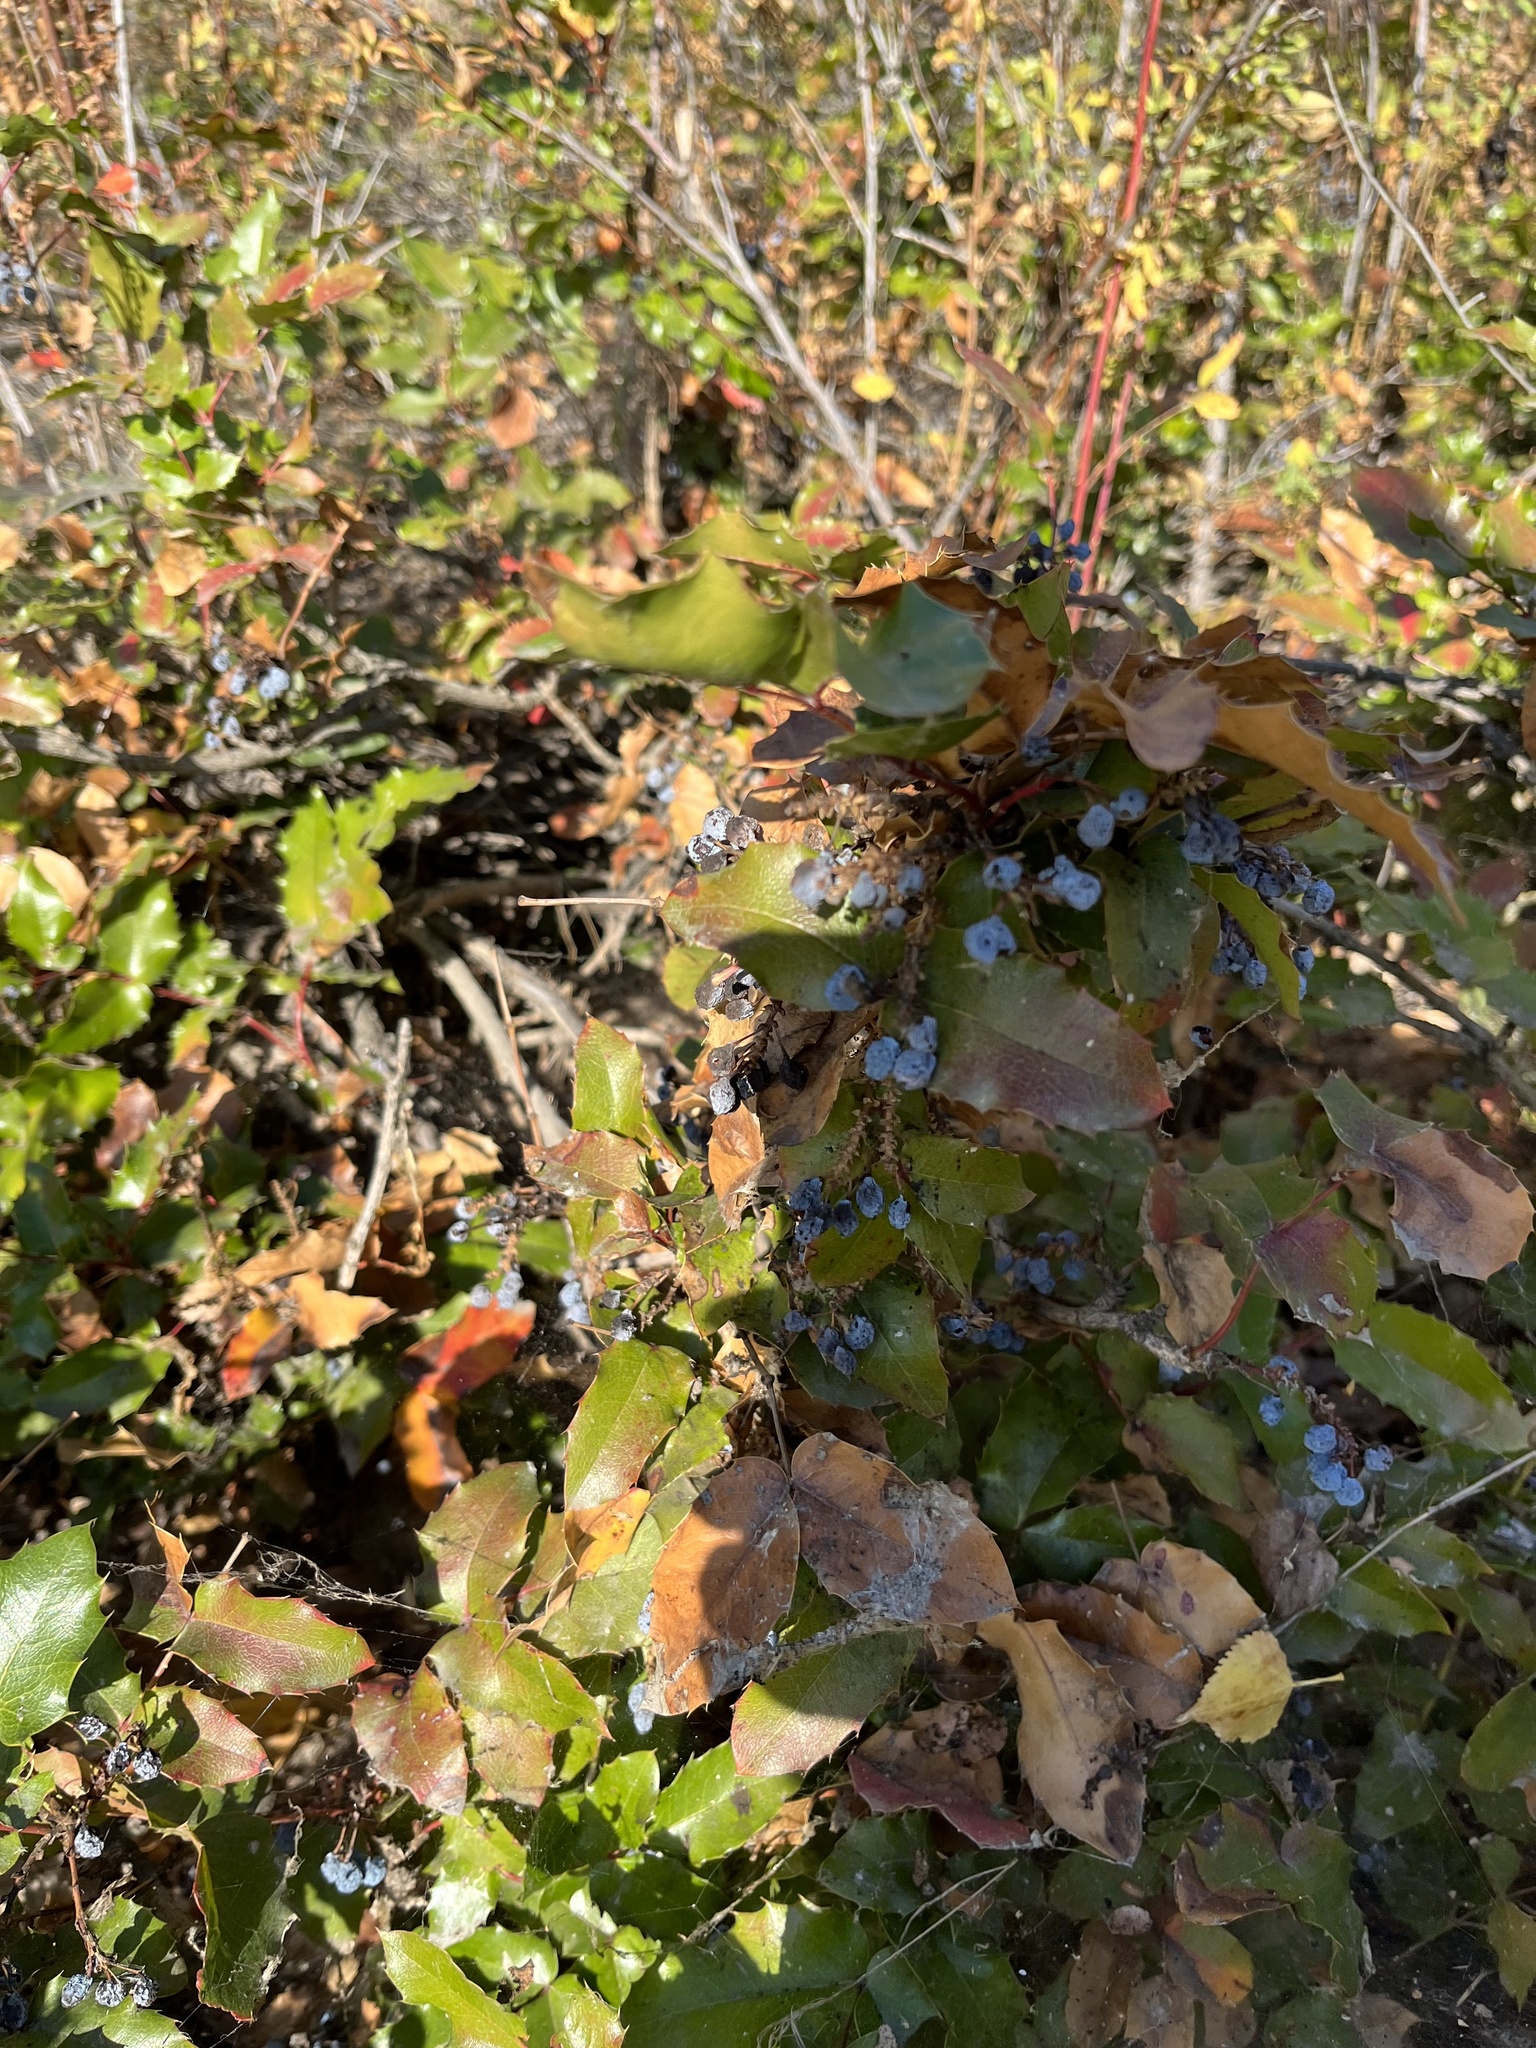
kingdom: Plantae
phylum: Tracheophyta
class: Magnoliopsida
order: Ranunculales
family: Berberidaceae
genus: Mahonia
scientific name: Mahonia aquifolium
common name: Oregon-grape
